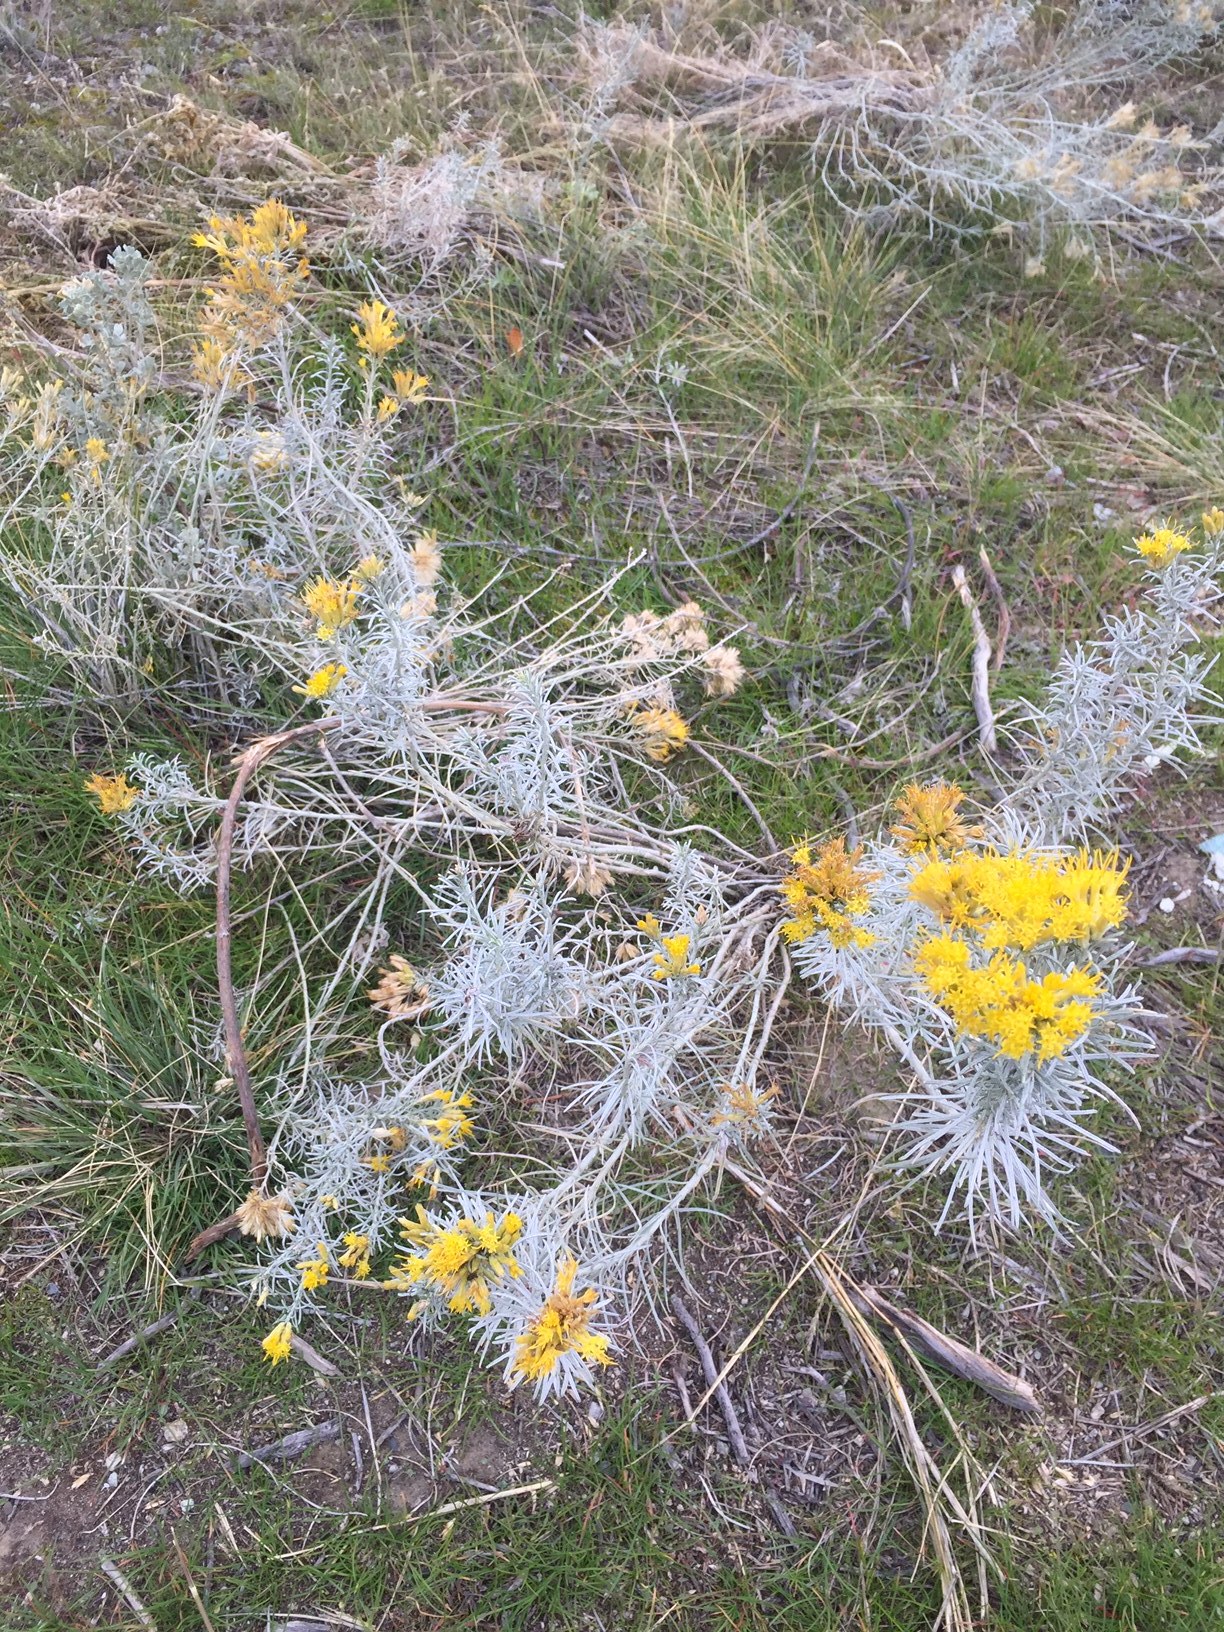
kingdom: Plantae
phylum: Tracheophyta
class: Magnoliopsida
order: Asterales
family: Asteraceae
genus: Ericameria
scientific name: Ericameria nauseosa
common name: Rubber rabbitbrush
